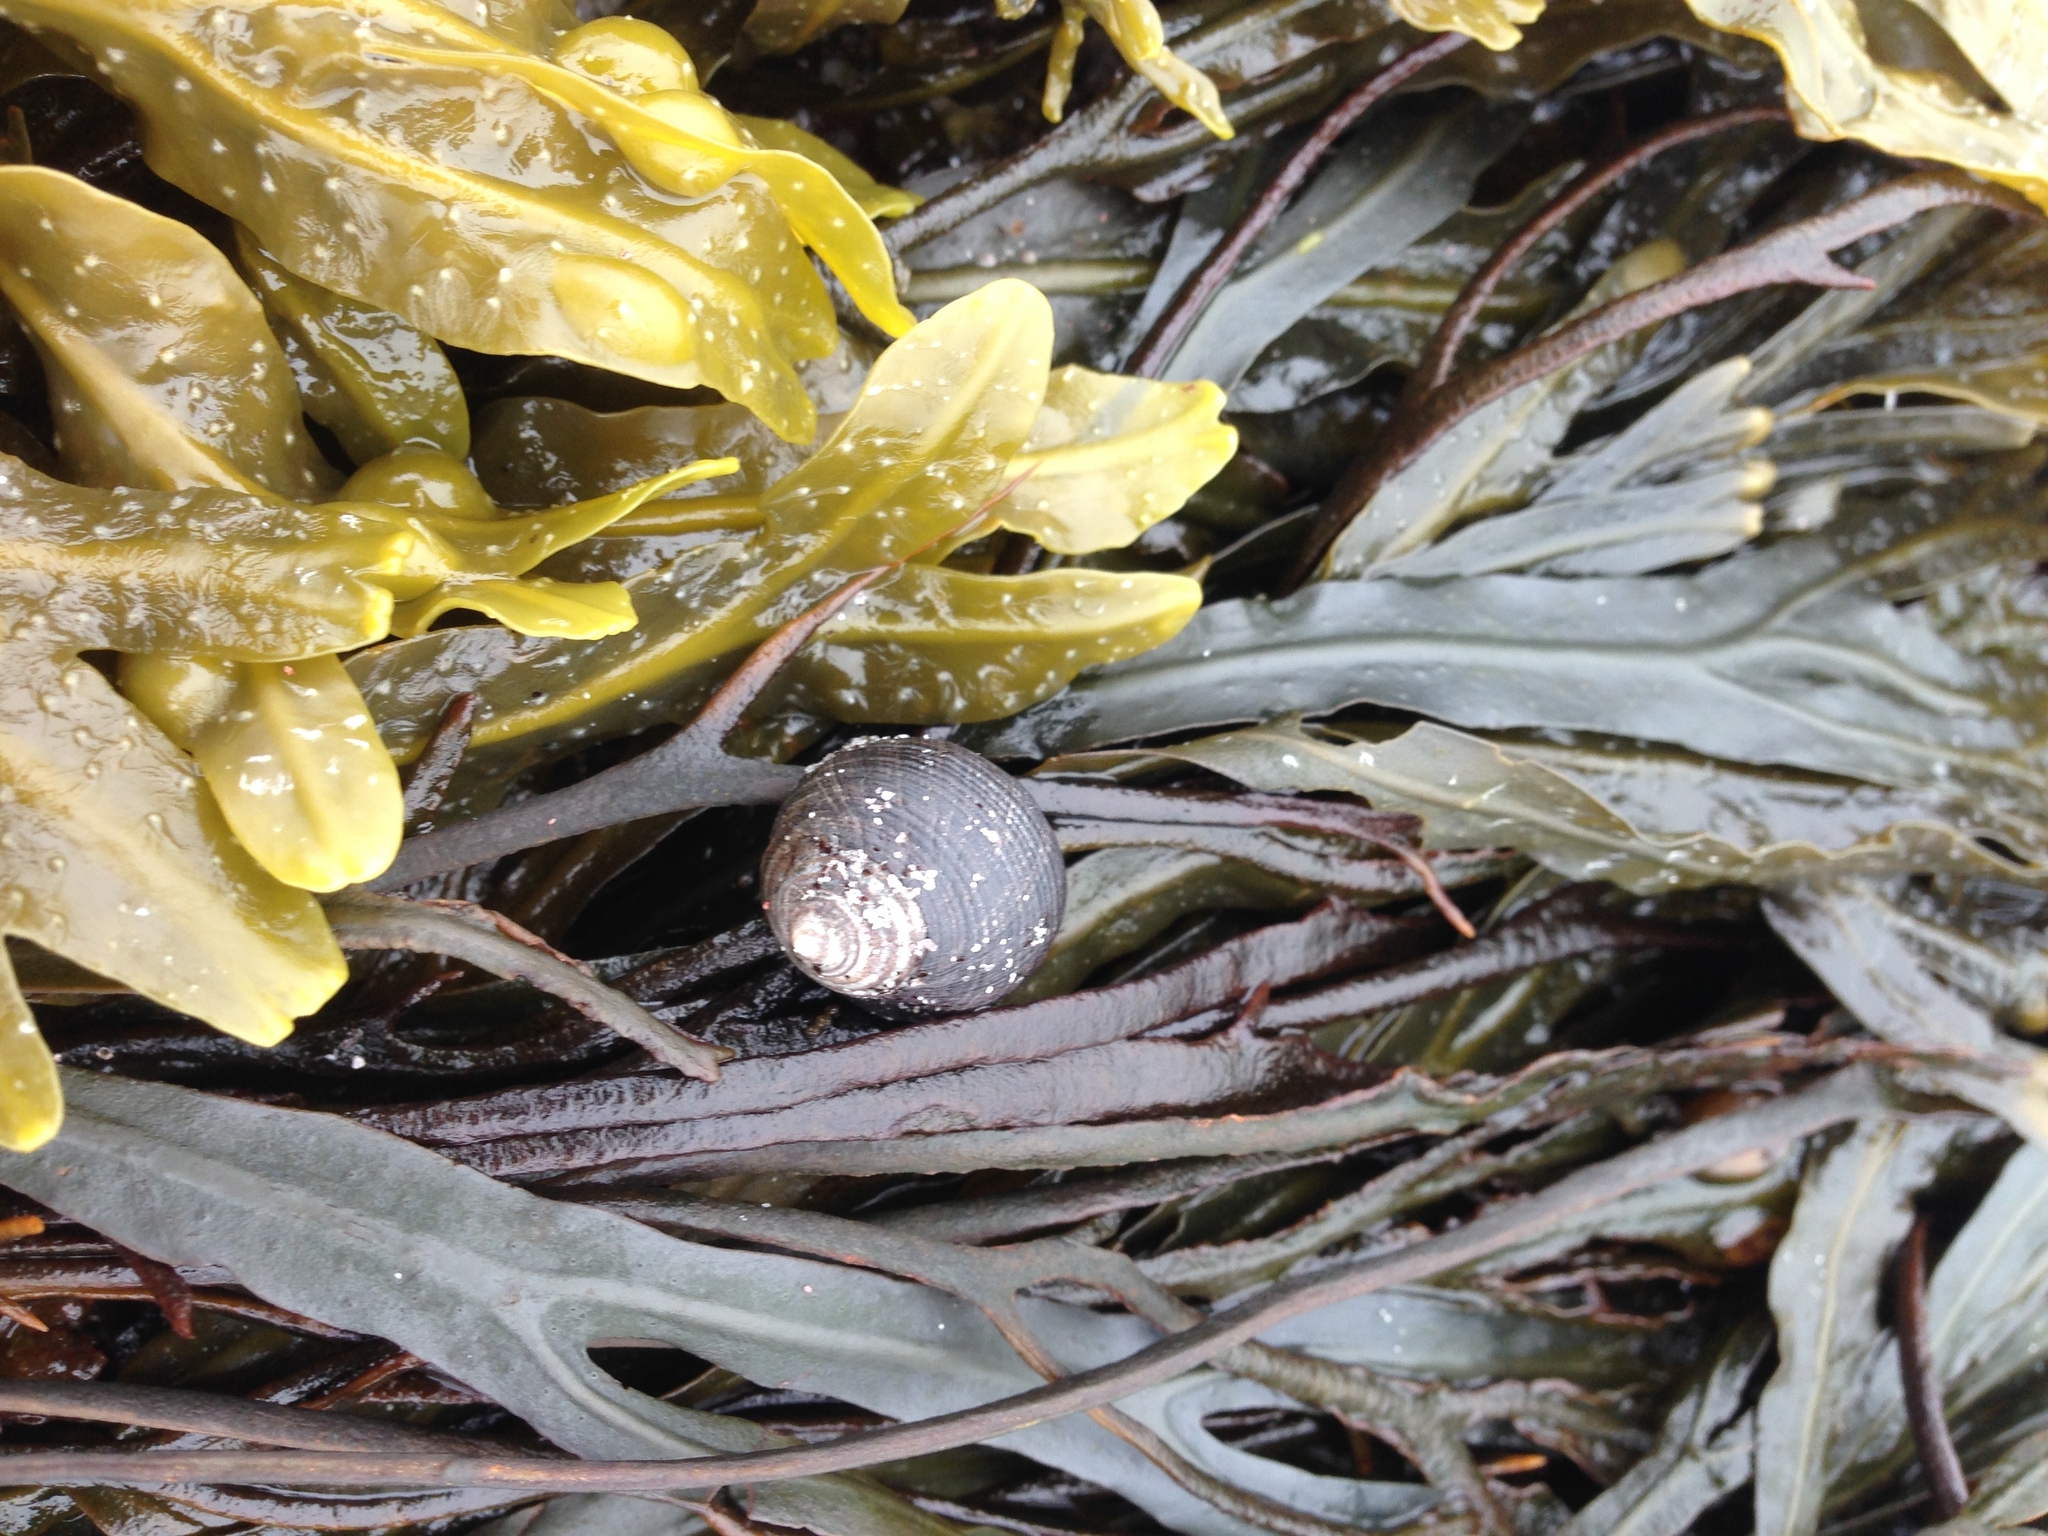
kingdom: Animalia
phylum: Mollusca
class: Gastropoda
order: Littorinimorpha
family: Littorinidae
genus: Littorina
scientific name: Littorina littorea
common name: Common periwinkle
